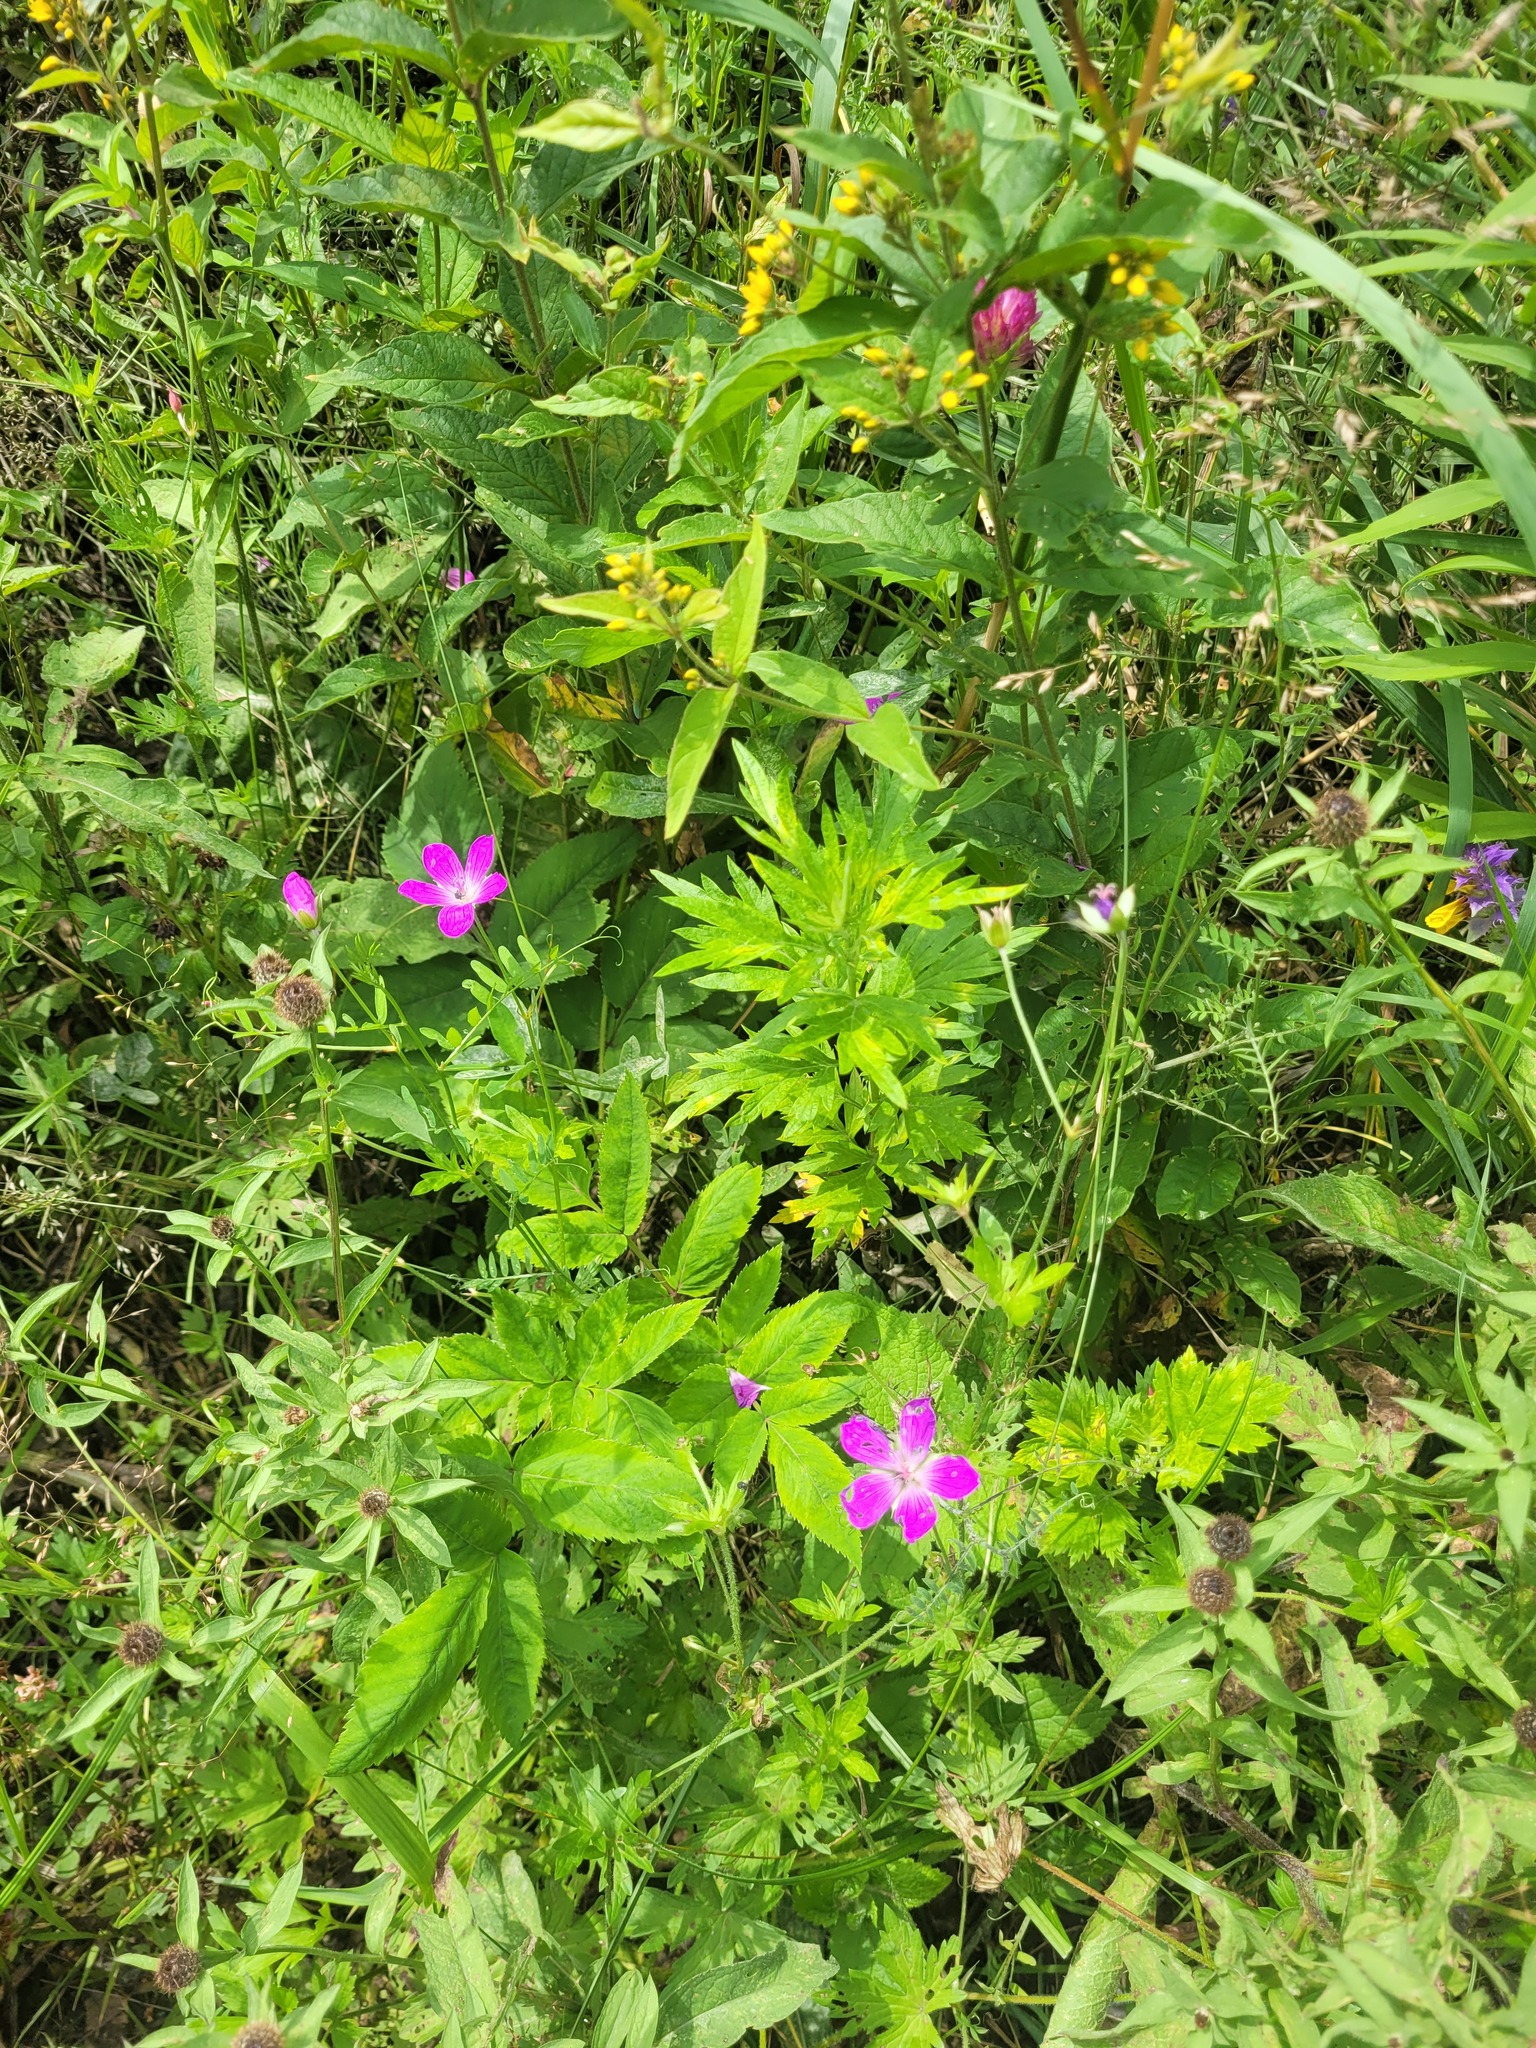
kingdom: Plantae
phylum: Tracheophyta
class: Magnoliopsida
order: Geraniales
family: Geraniaceae
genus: Geranium
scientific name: Geranium palustre
